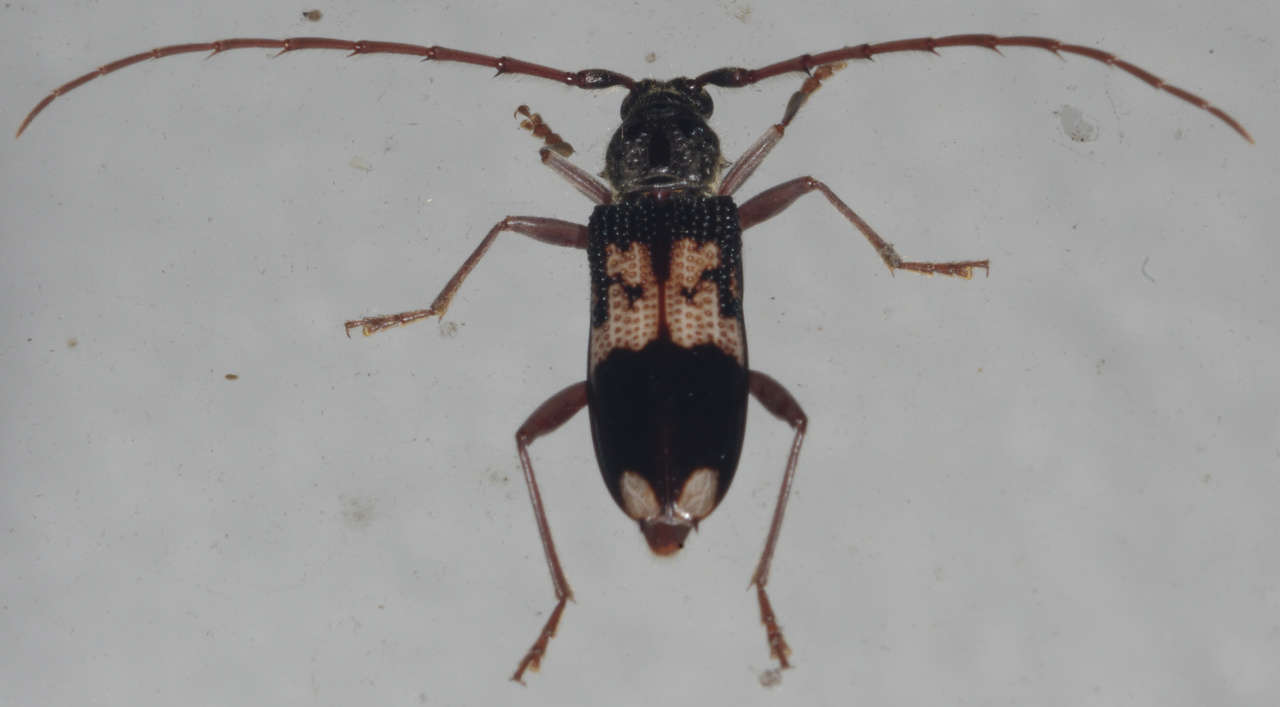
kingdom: Animalia
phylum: Arthropoda
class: Insecta
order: Coleoptera
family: Cerambycidae
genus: Phoracantha
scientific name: Phoracantha semipunctata
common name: Eucalyptus longhorn borer
